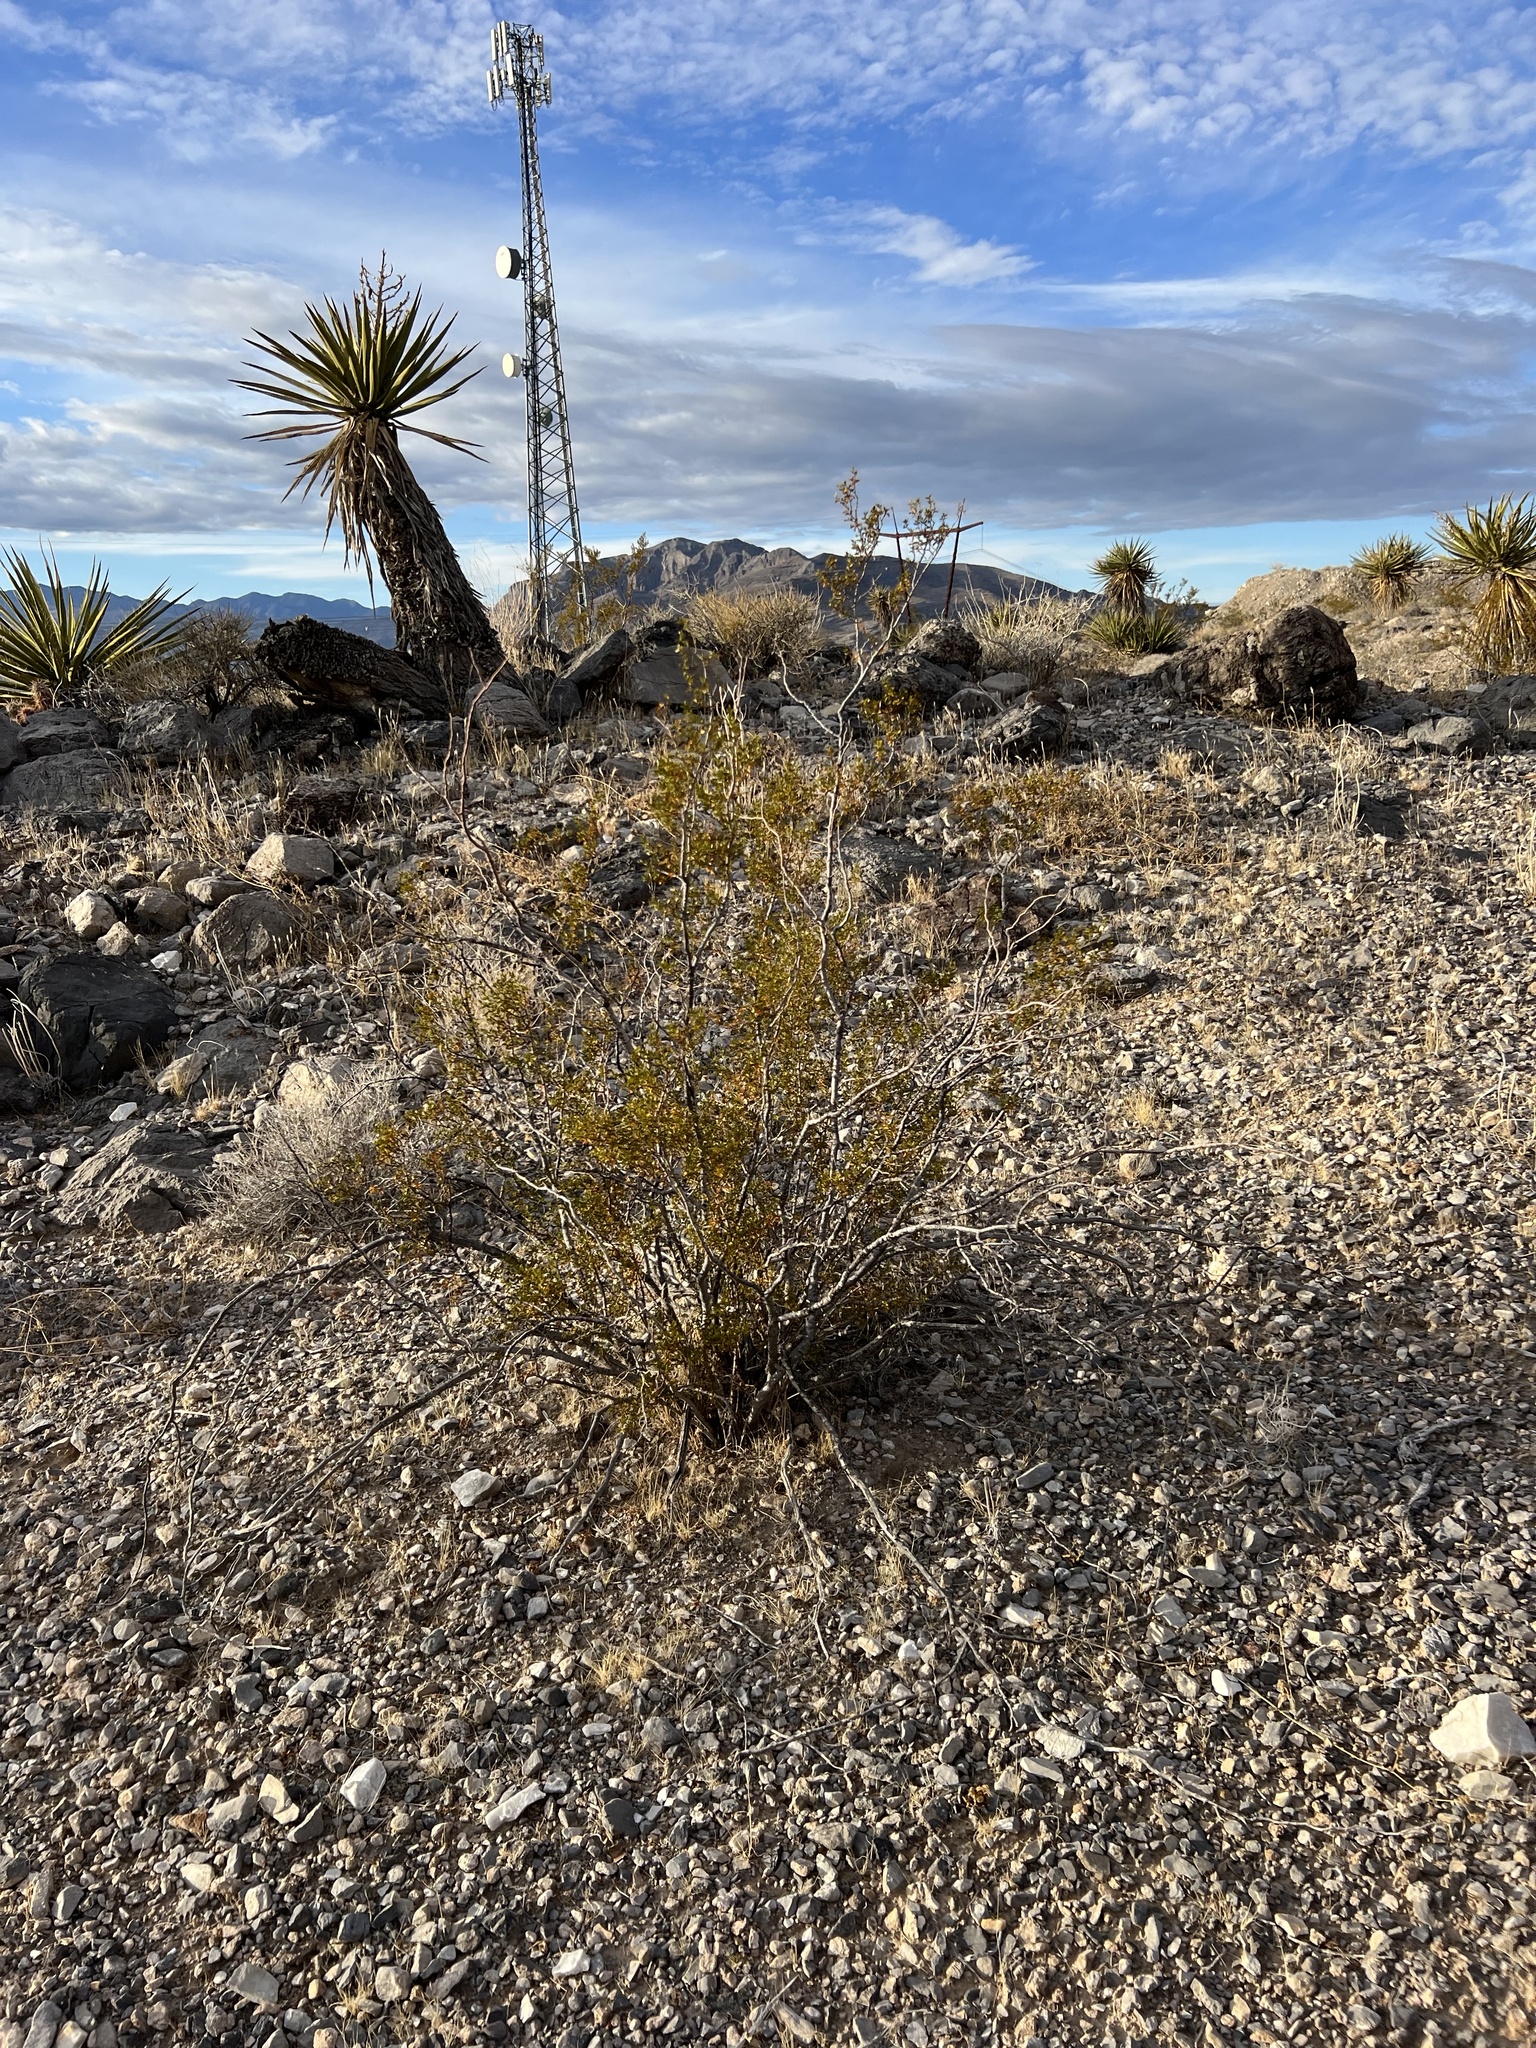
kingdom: Plantae
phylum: Tracheophyta
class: Magnoliopsida
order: Zygophyllales
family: Zygophyllaceae
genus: Larrea
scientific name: Larrea tridentata
